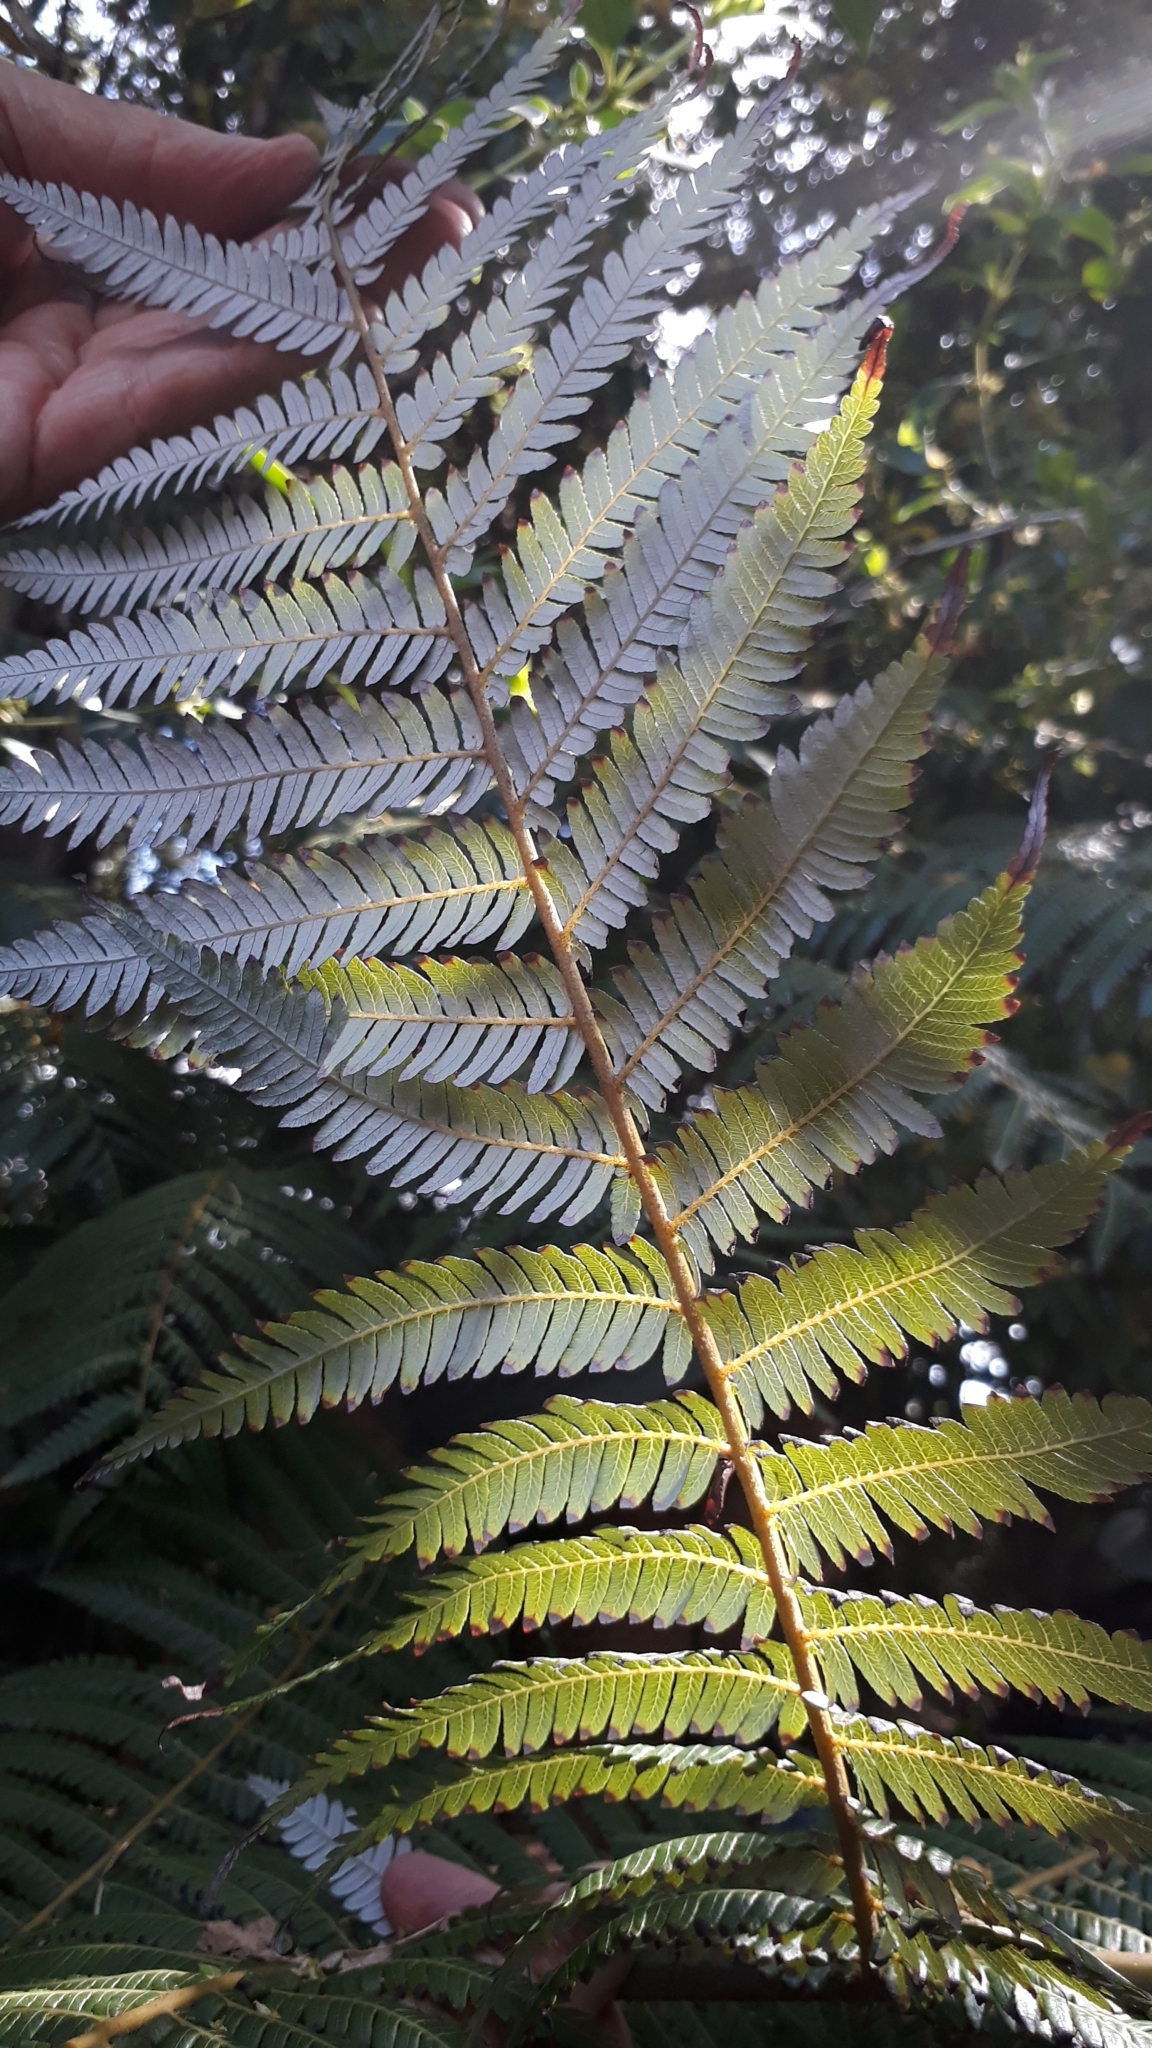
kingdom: Plantae
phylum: Tracheophyta
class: Polypodiopsida
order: Cyatheales
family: Cyatheaceae
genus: Alsophila
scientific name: Alsophila dealbata
